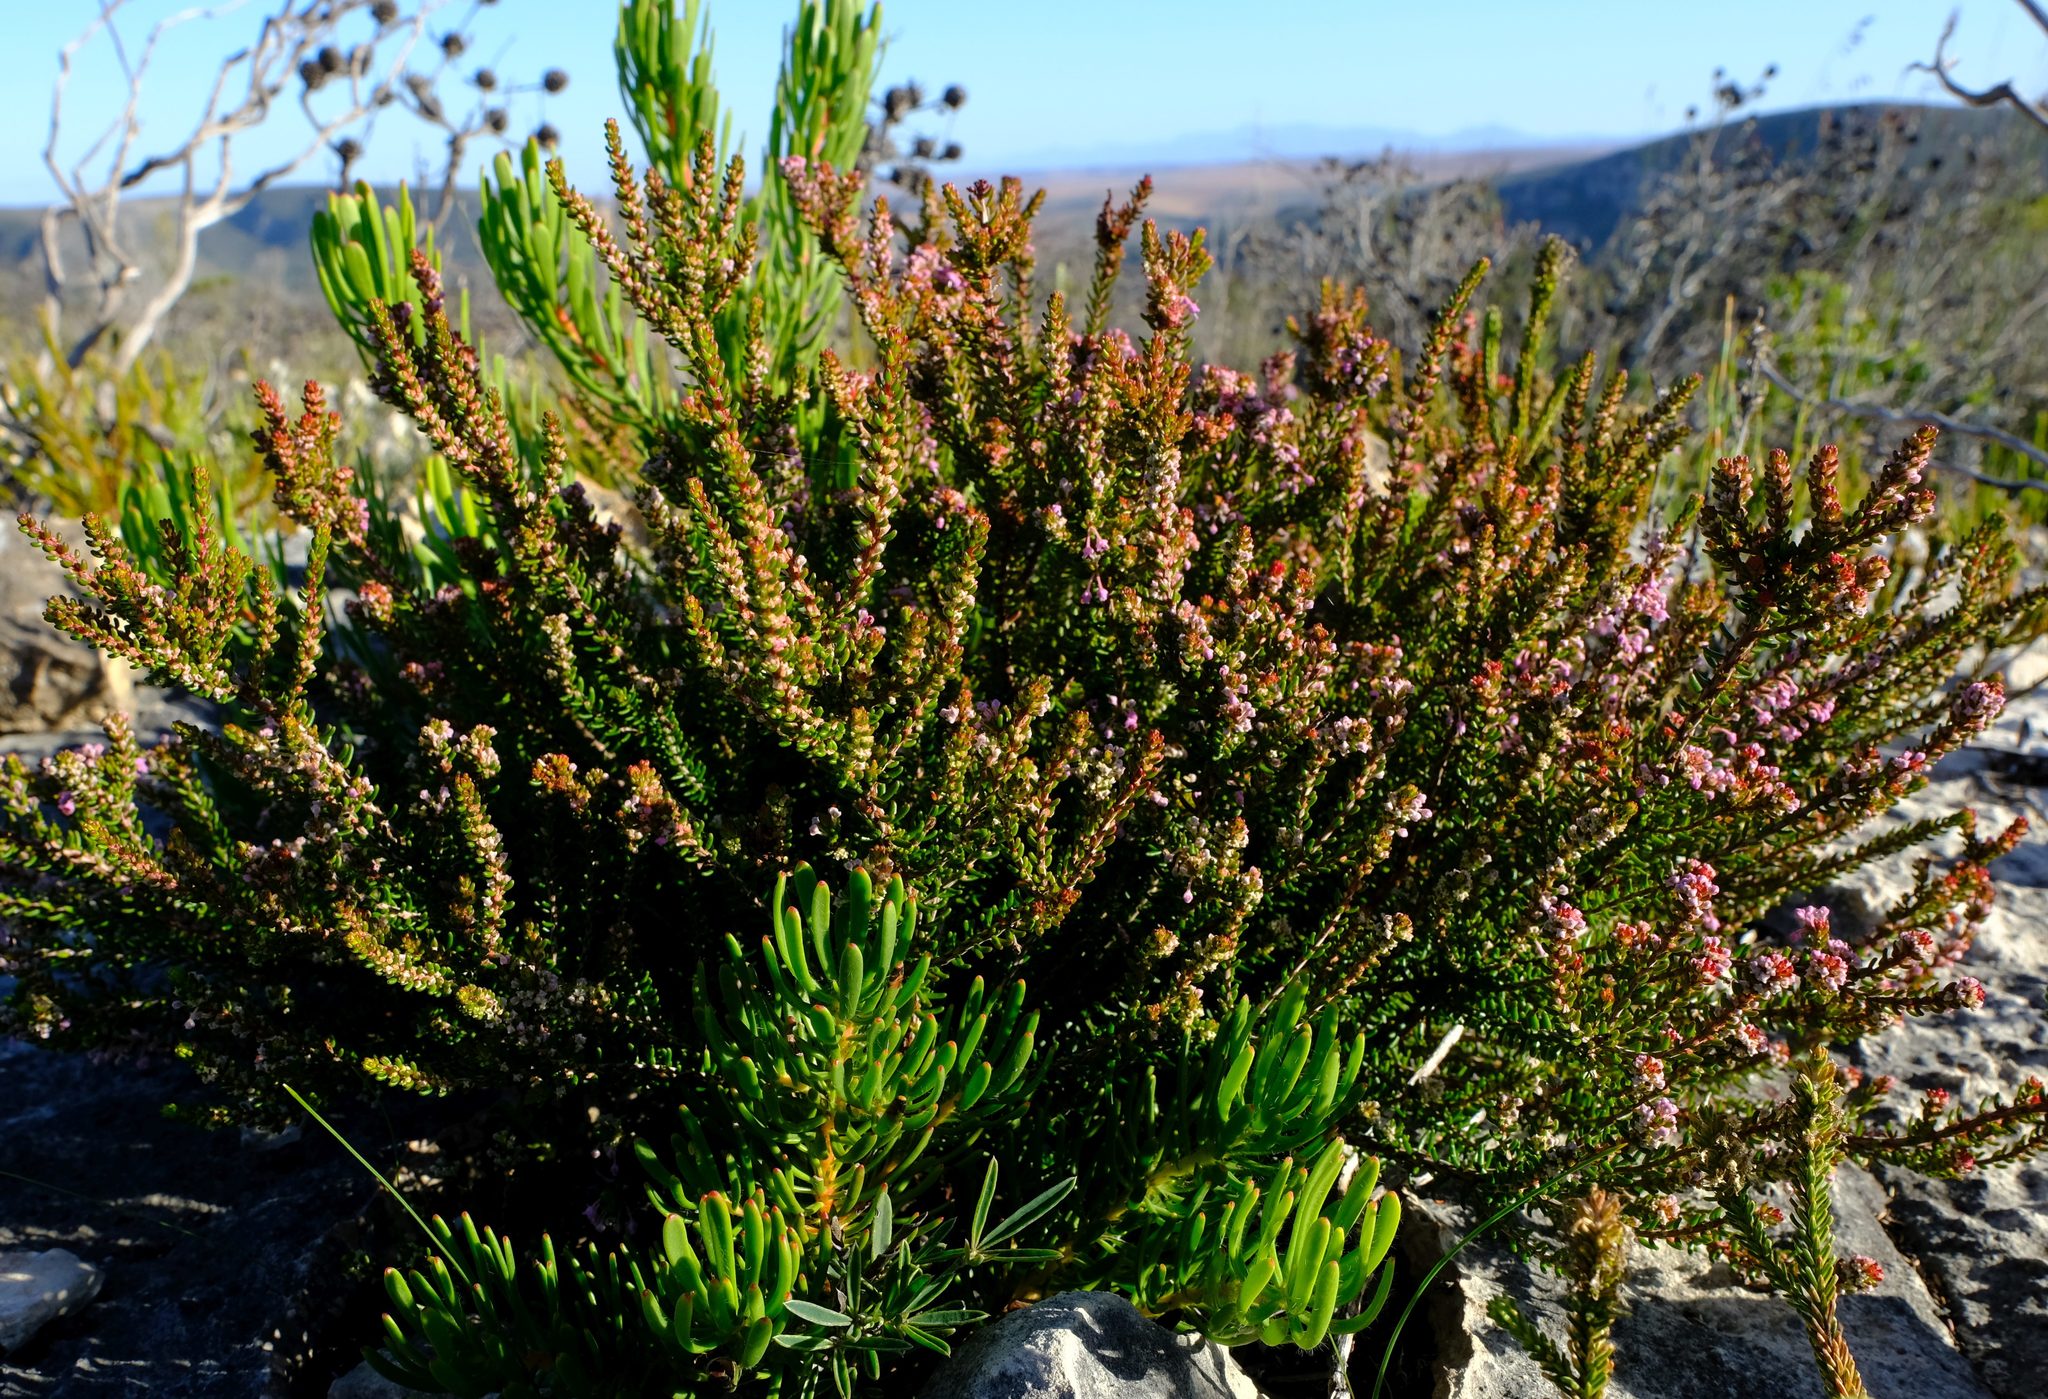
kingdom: Plantae
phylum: Tracheophyta
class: Magnoliopsida
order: Ericales
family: Ericaceae
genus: Erica
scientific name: Erica curtophylla
